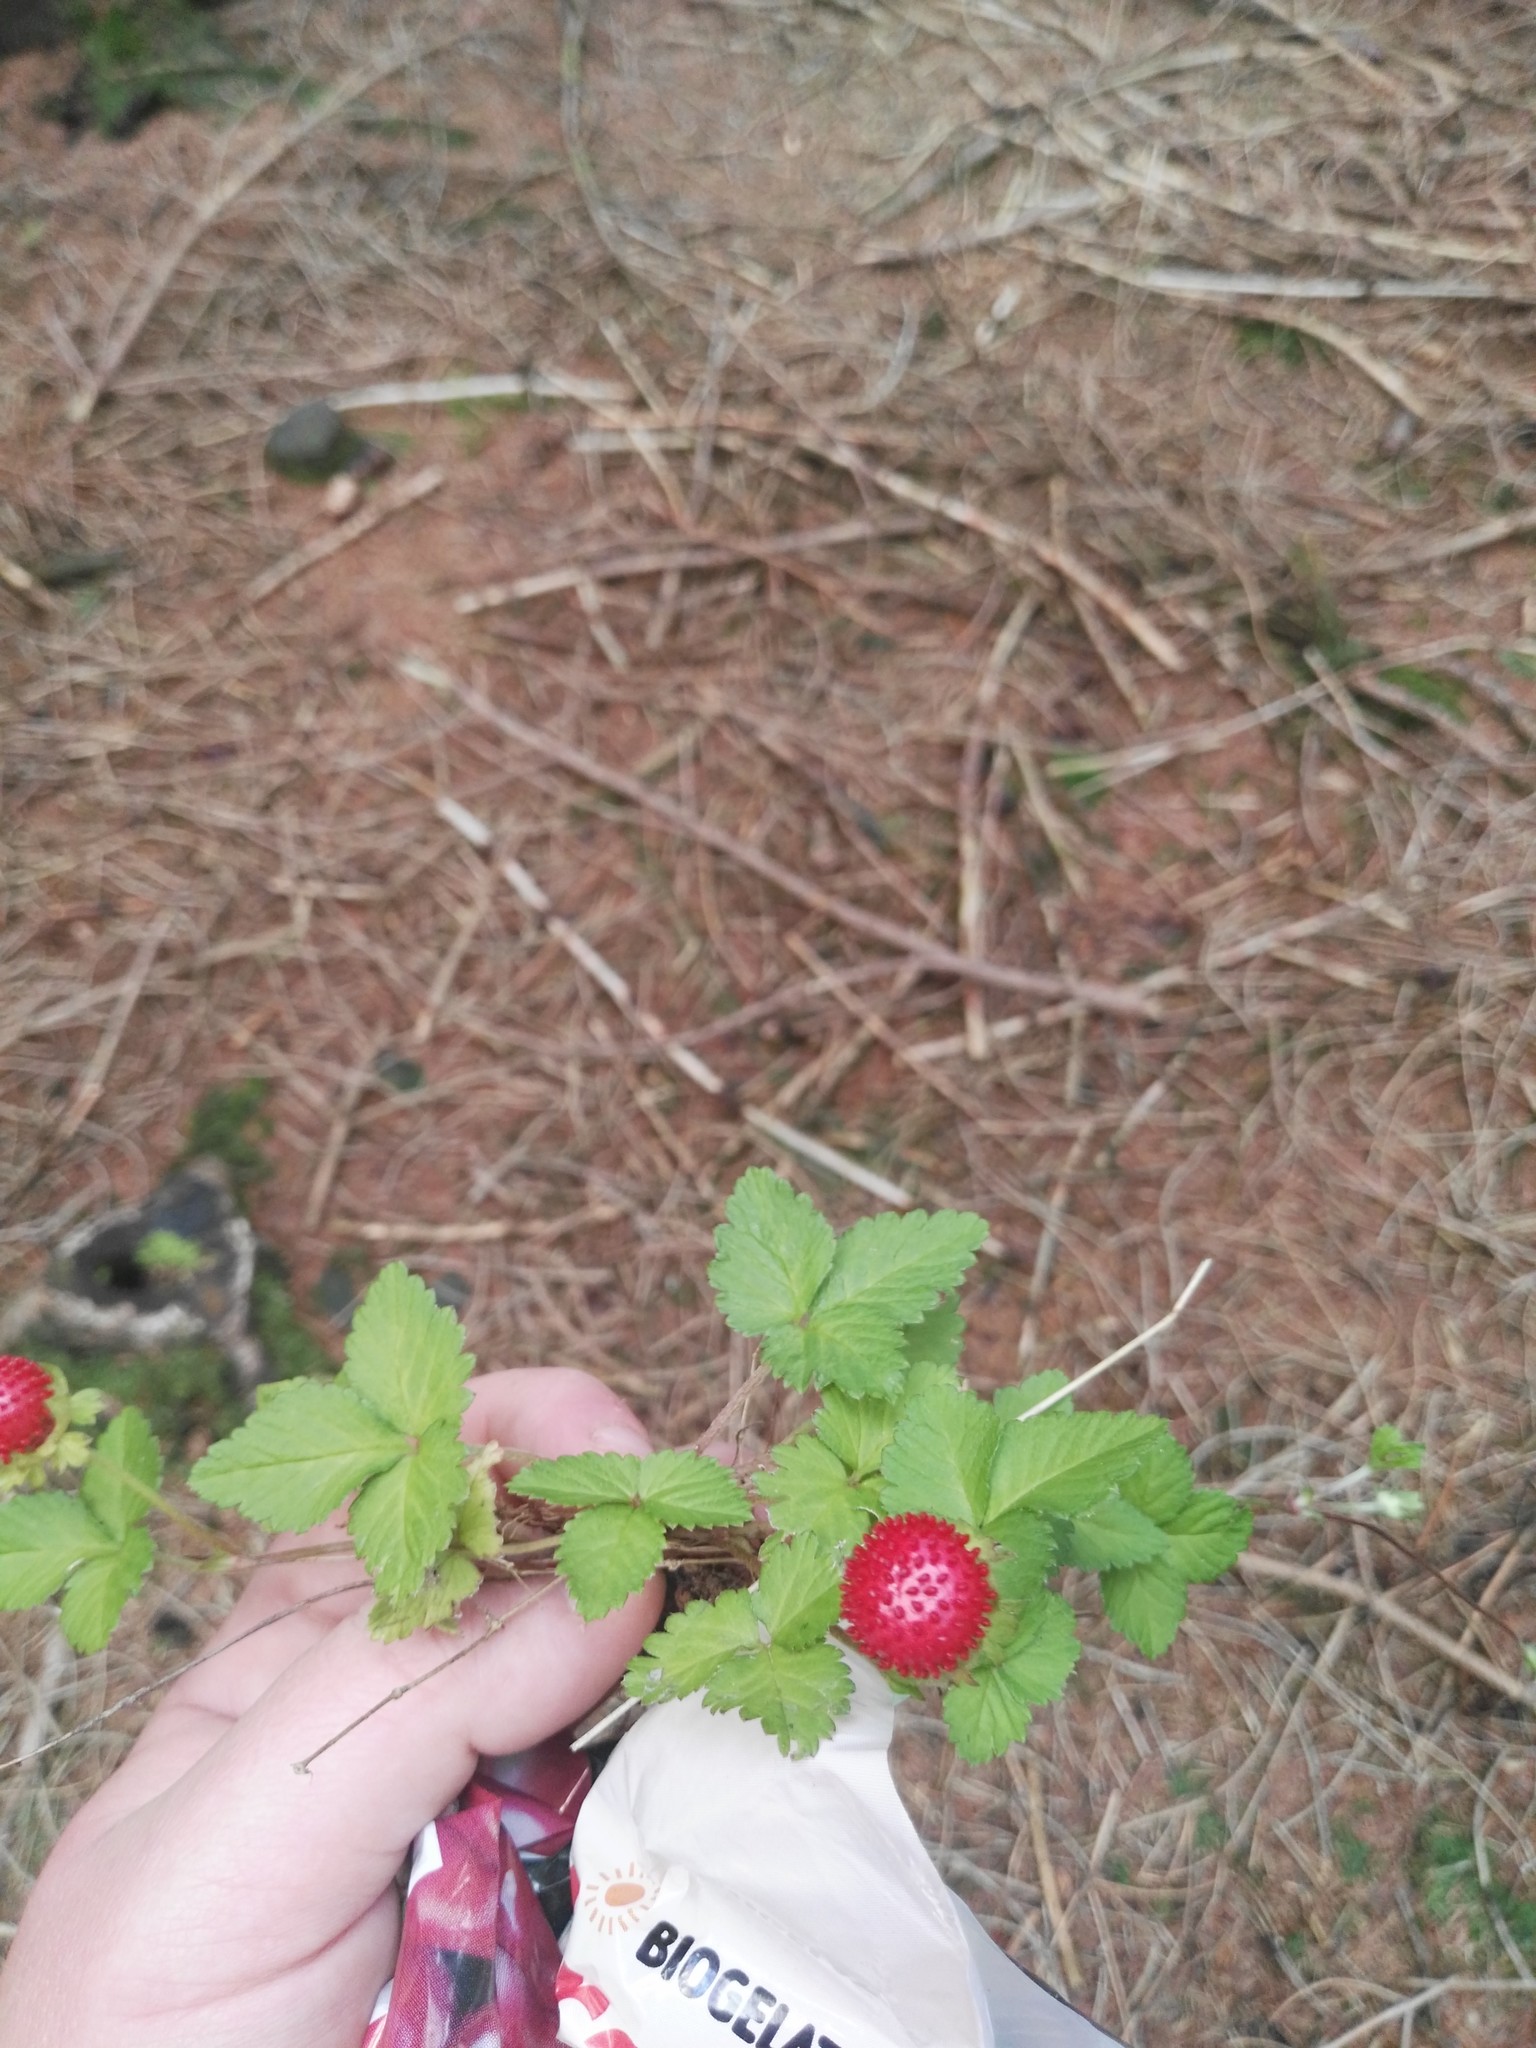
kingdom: Plantae
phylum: Tracheophyta
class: Magnoliopsida
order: Rosales
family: Rosaceae
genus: Potentilla
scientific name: Potentilla indica
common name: Yellow-flowered strawberry
